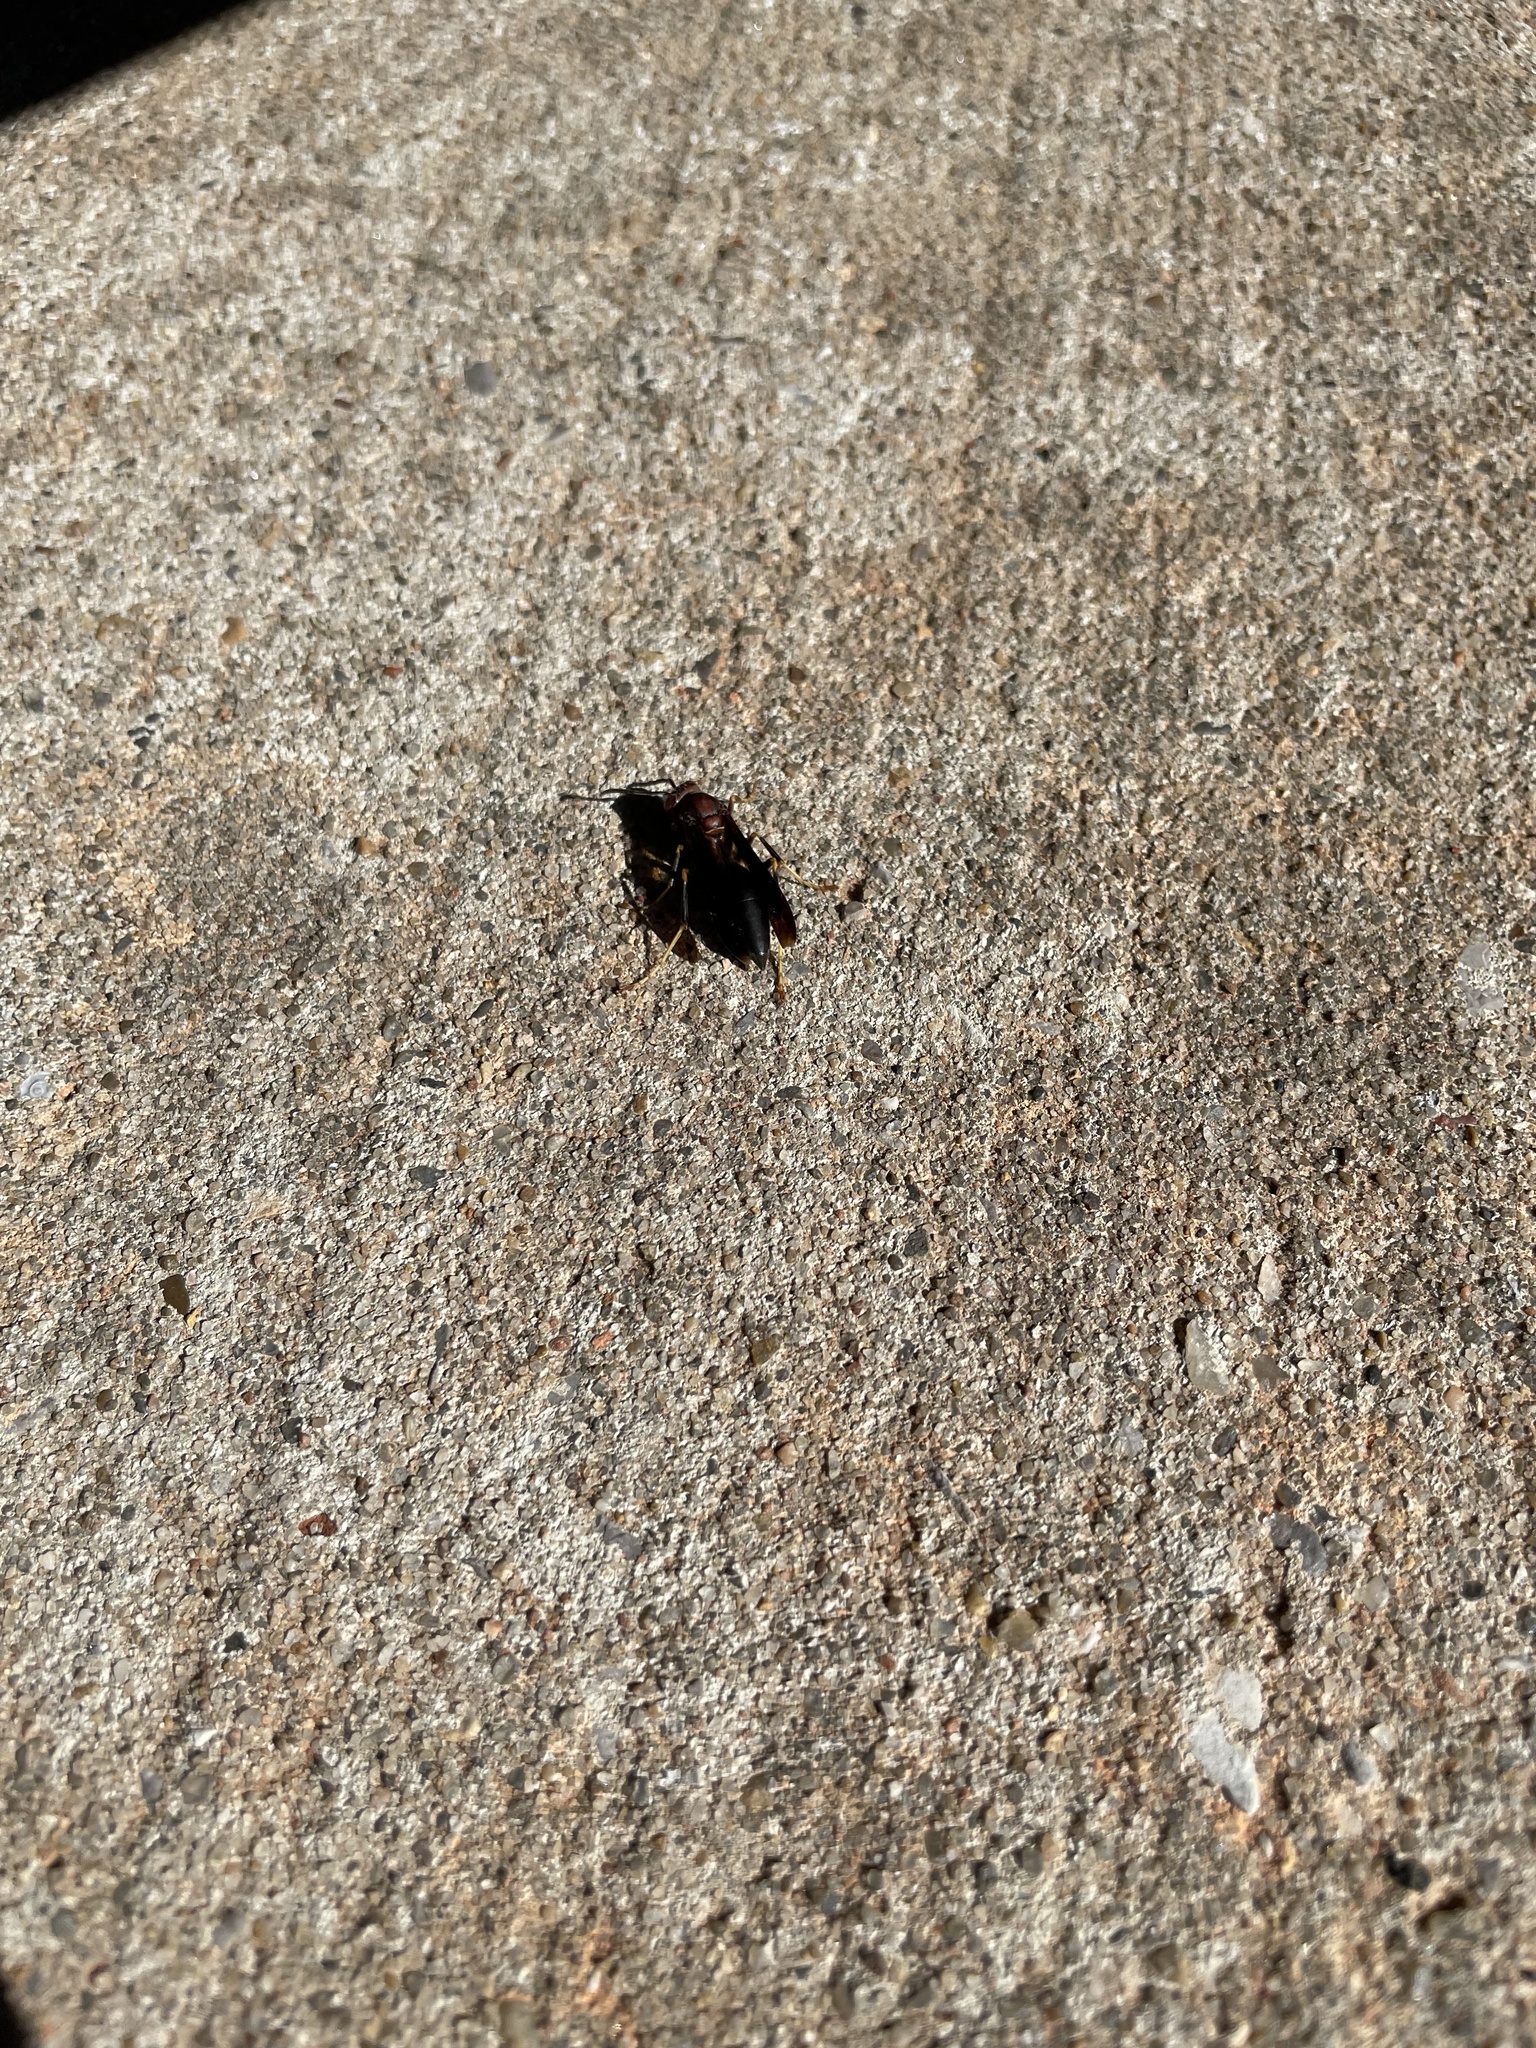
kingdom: Animalia
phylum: Arthropoda
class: Insecta
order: Hymenoptera
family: Eumenidae
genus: Polistes
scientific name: Polistes metricus
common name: Metric paper wasp
